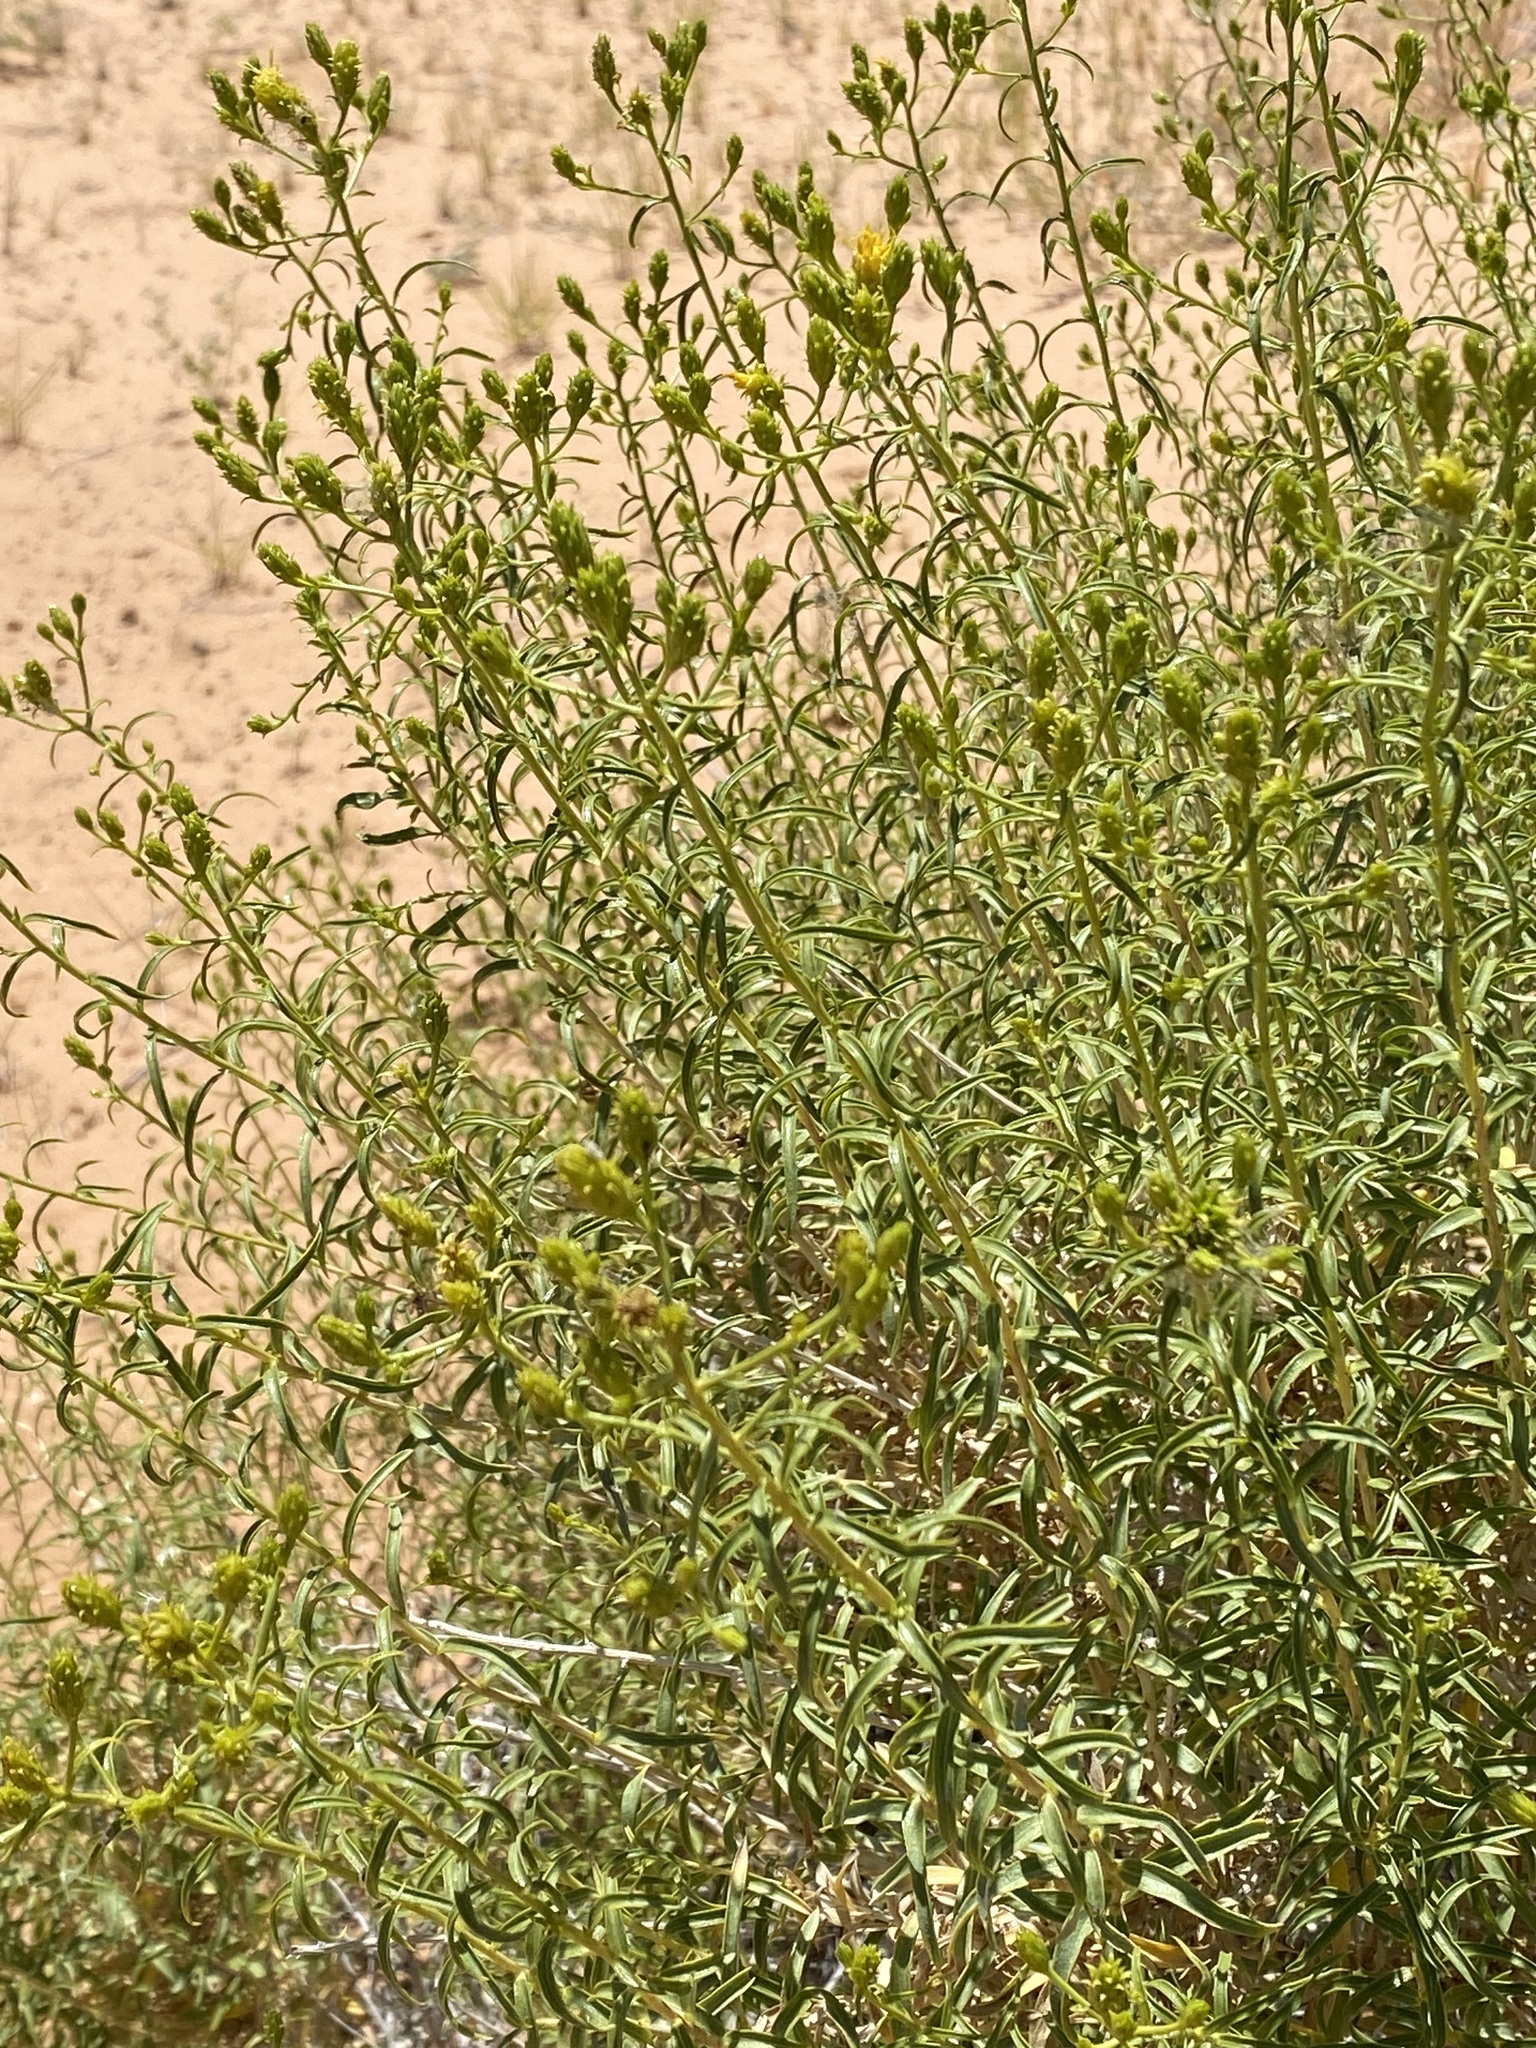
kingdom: Plantae
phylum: Tracheophyta
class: Magnoliopsida
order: Asterales
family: Asteraceae
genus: Chrysothamnus
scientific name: Chrysothamnus stylosus
